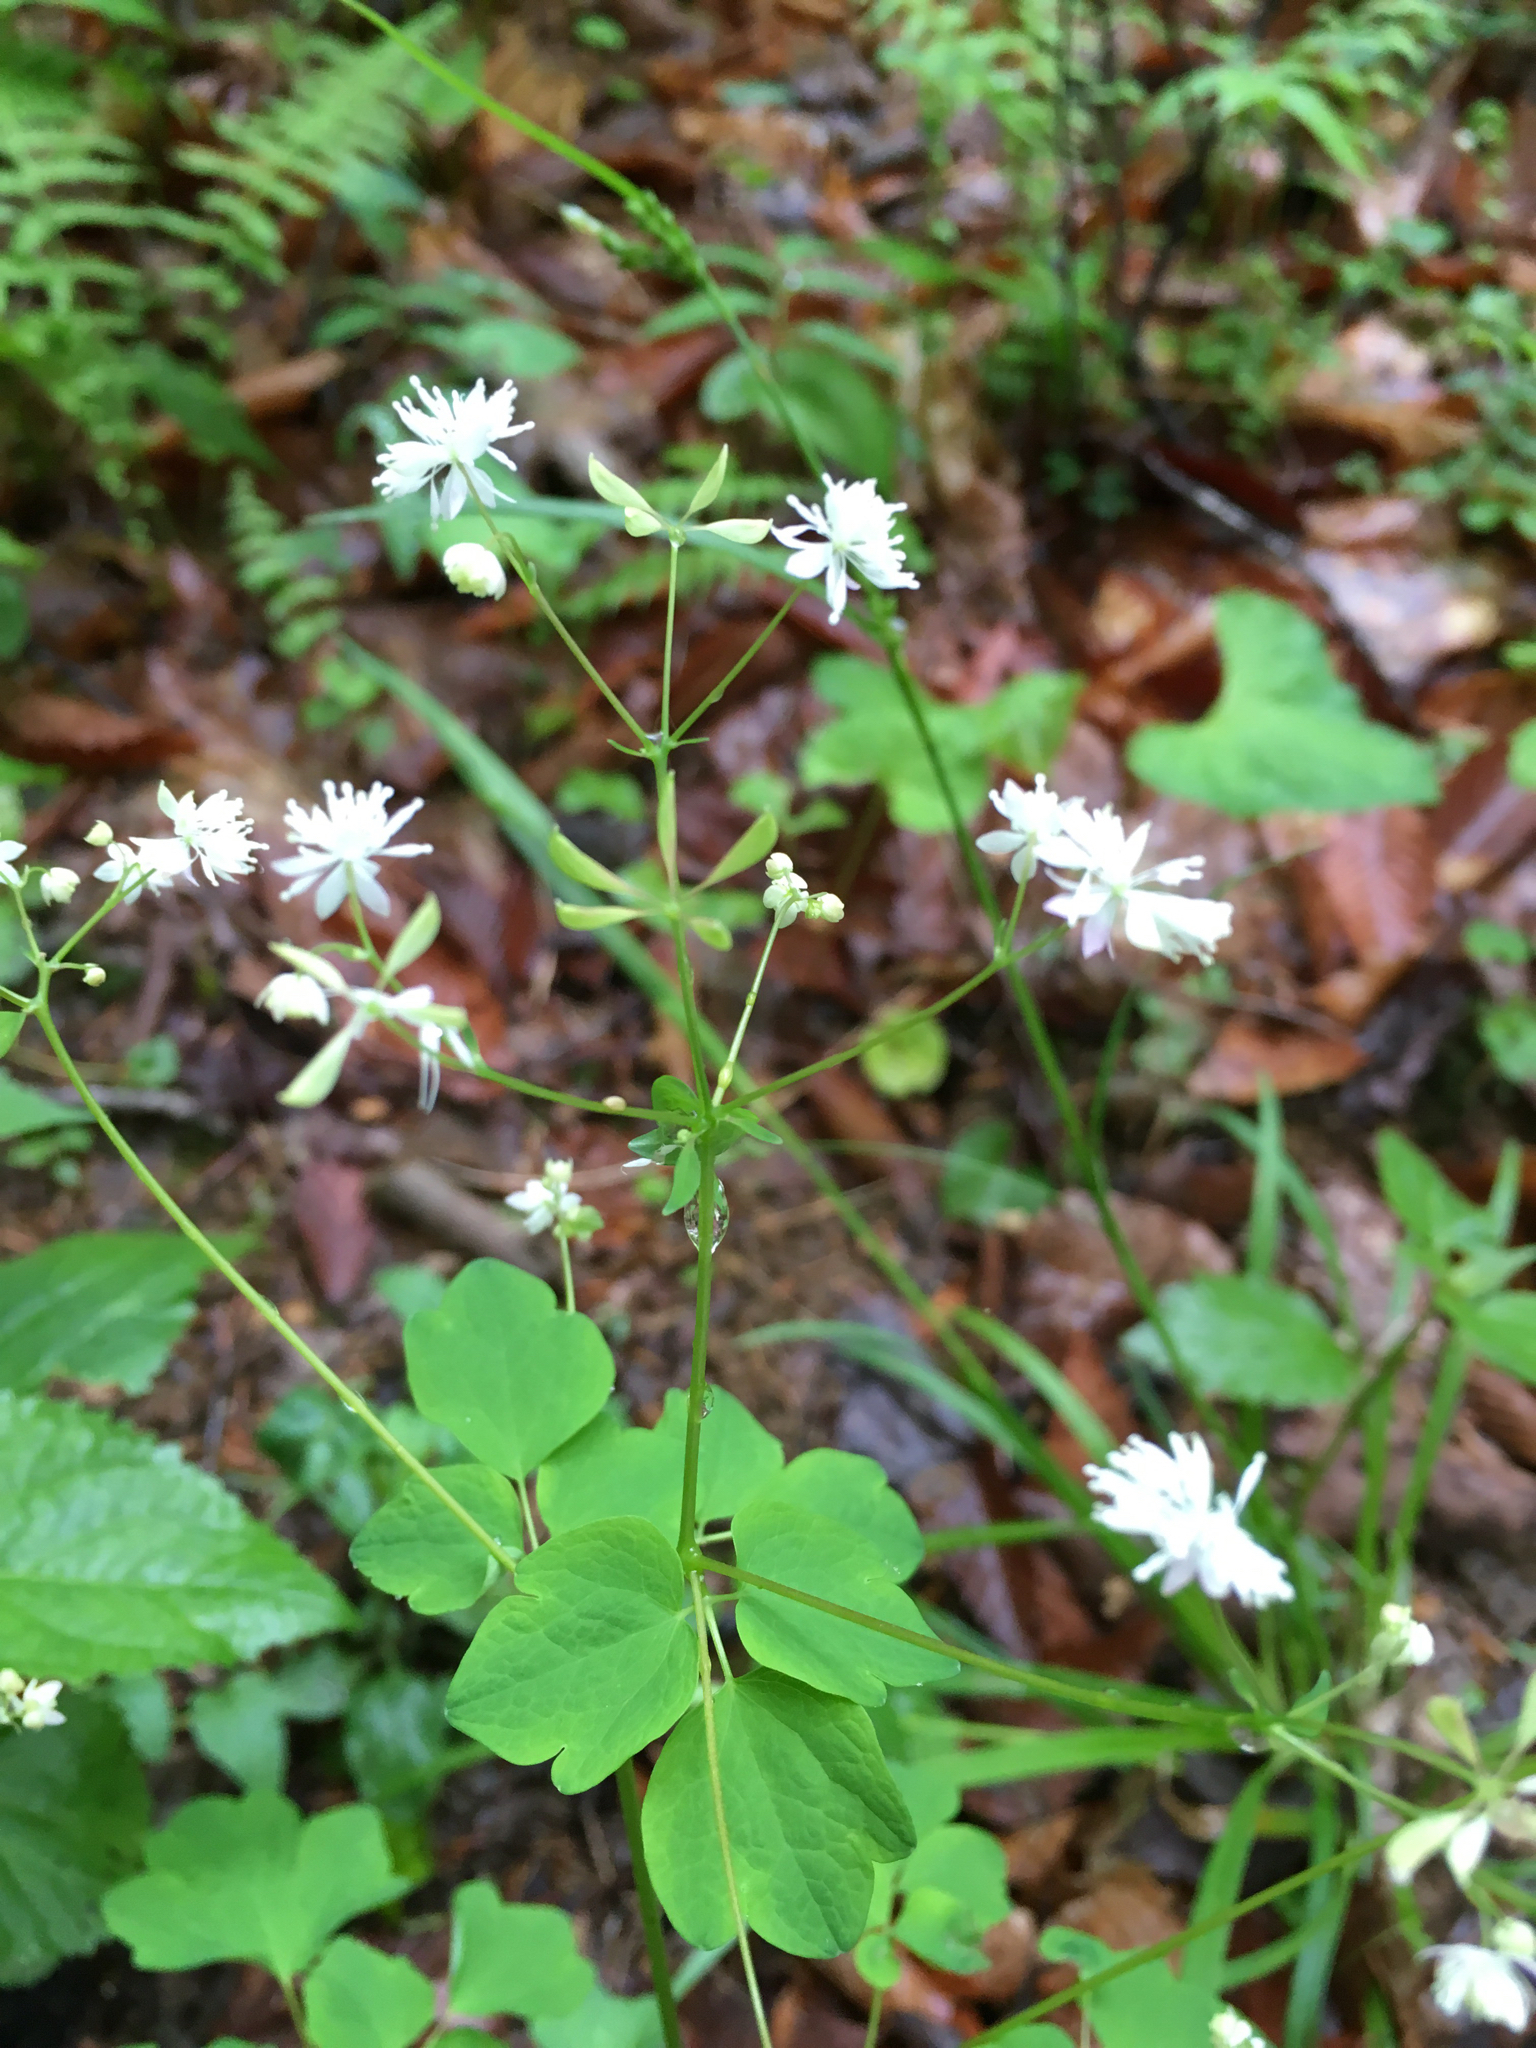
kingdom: Plantae
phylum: Tracheophyta
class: Magnoliopsida
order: Ranunculales
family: Ranunculaceae
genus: Thalictrum
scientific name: Thalictrum clavatum
